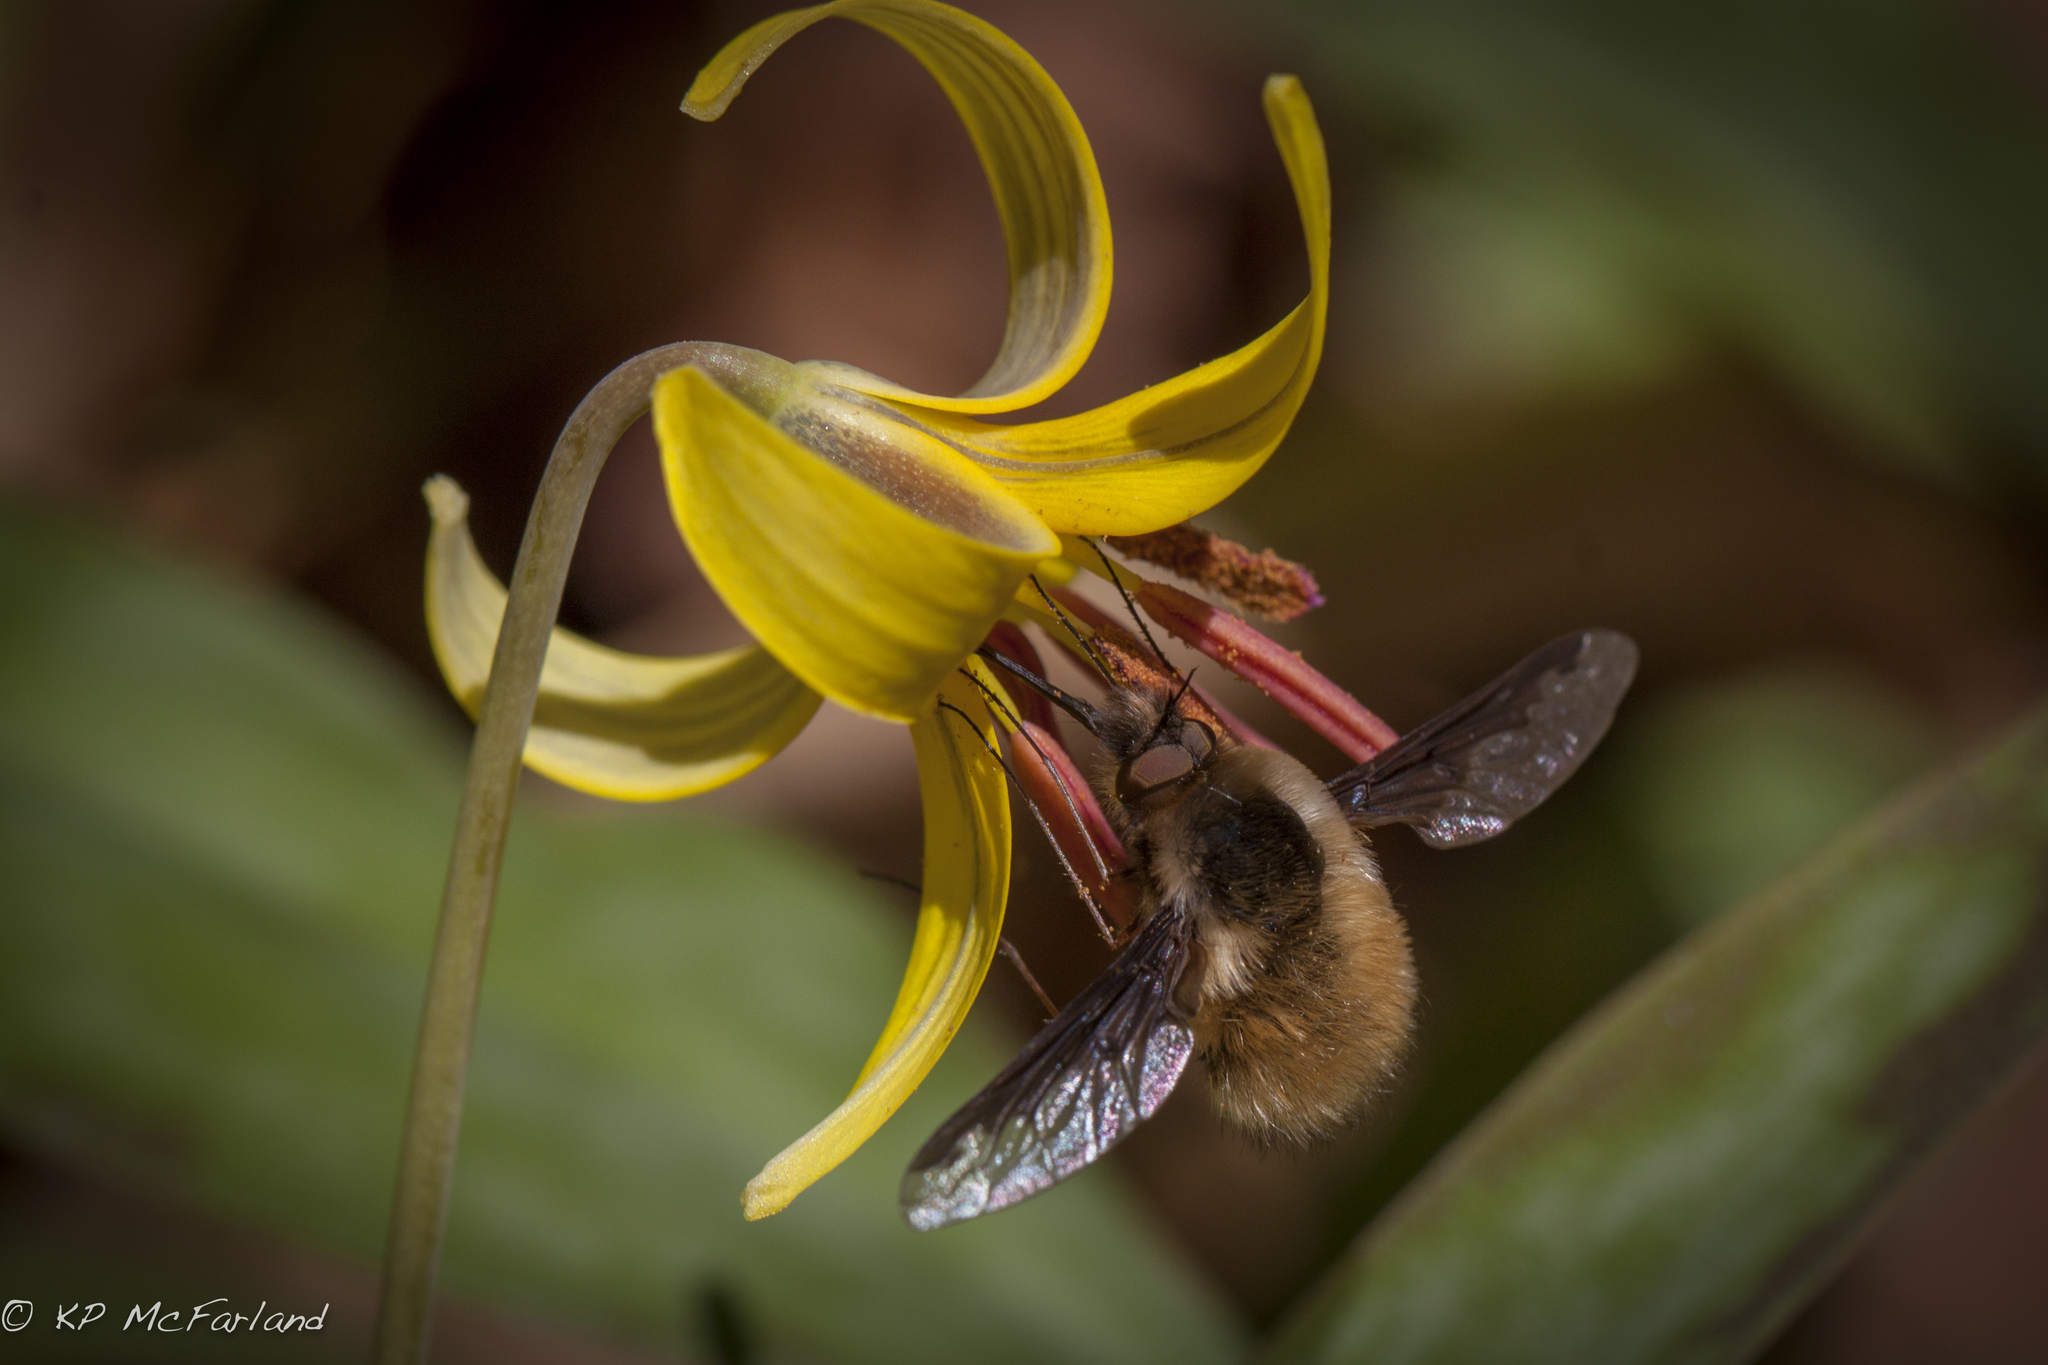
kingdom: Animalia
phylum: Arthropoda
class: Insecta
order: Diptera
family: Bombyliidae
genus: Bombylius
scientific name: Bombylius major
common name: Bee fly
